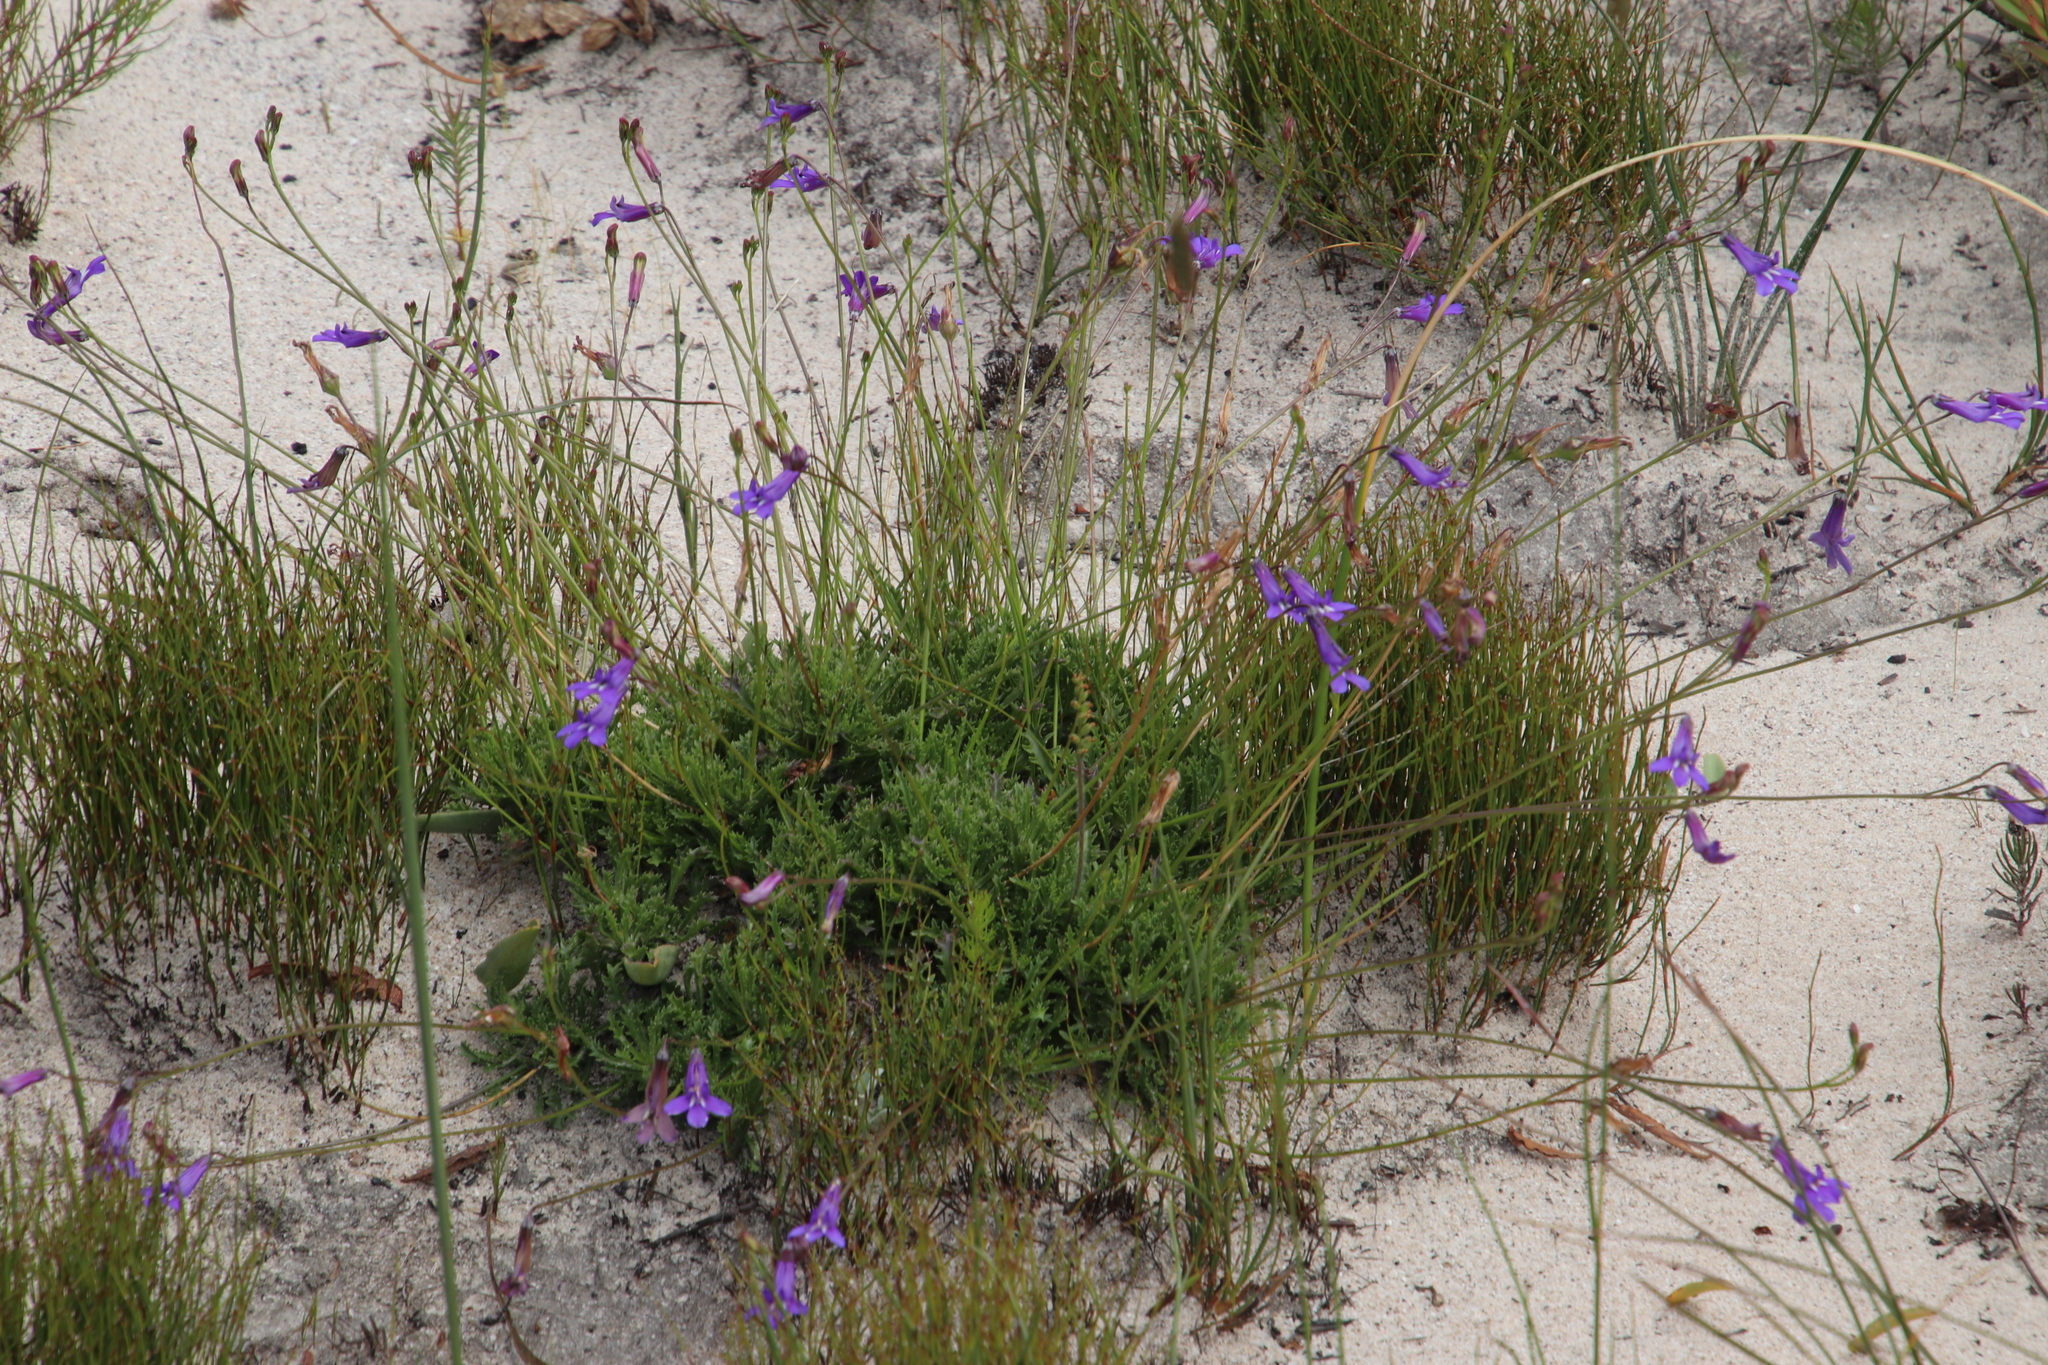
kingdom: Plantae
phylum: Tracheophyta
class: Magnoliopsida
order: Asterales
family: Campanulaceae
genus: Lobelia
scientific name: Lobelia coronopifolia
